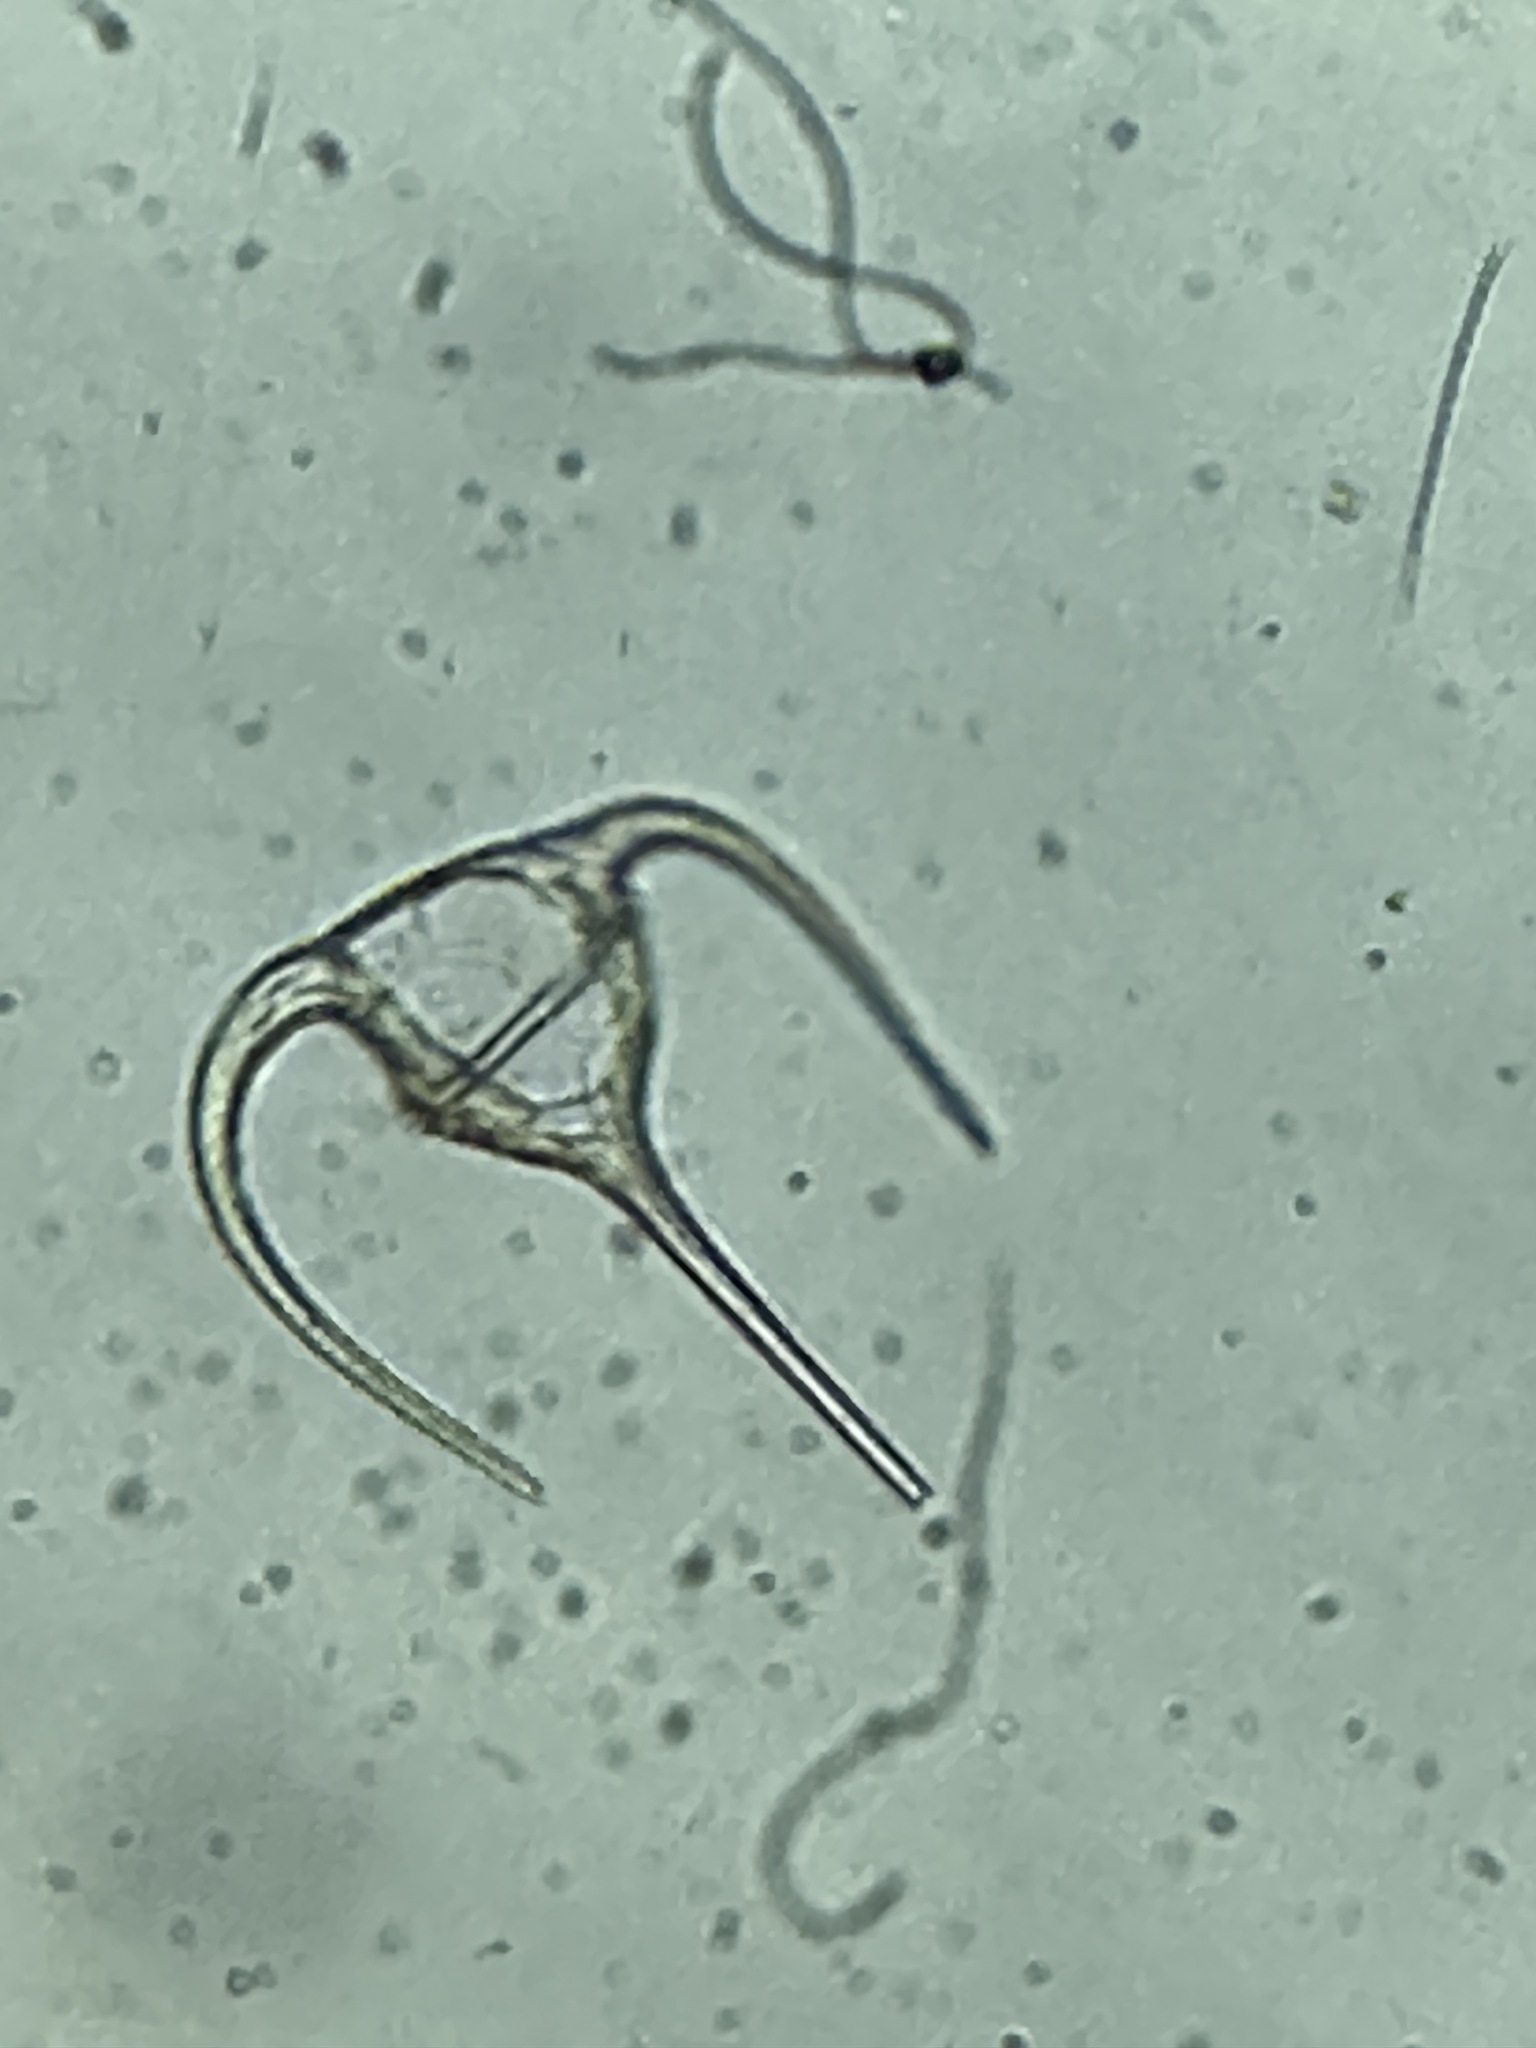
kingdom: Chromista
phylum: Myzozoa
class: Dinophyceae
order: Gonyaulacales
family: Ceratiaceae
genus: Tripos
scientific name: Tripos longipes
